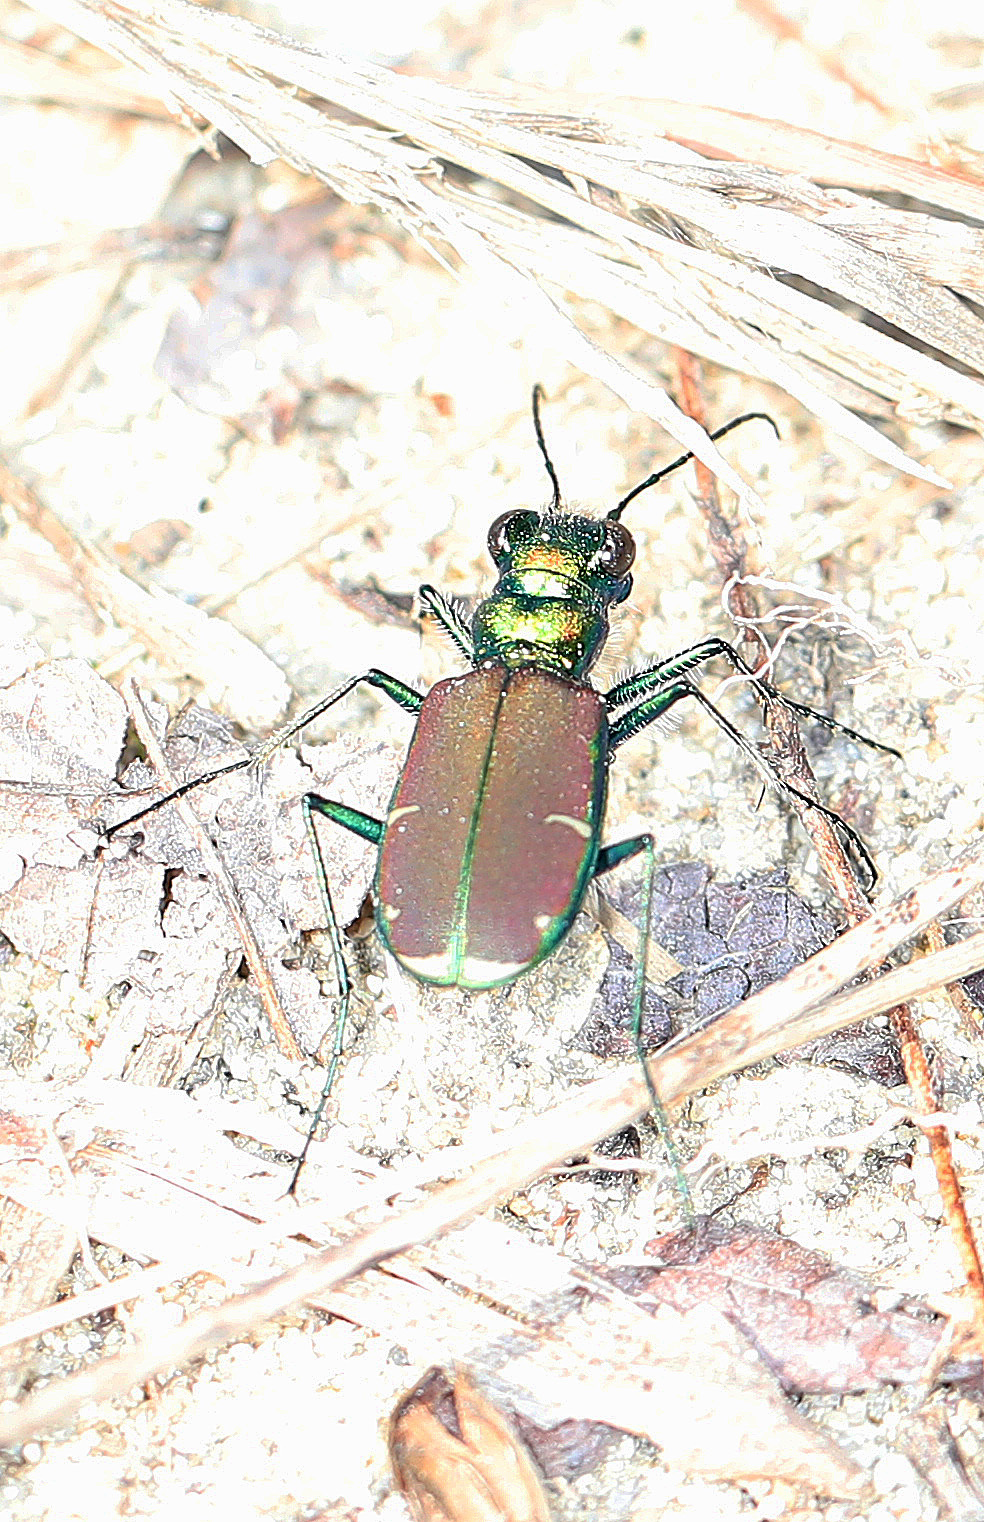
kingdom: Animalia
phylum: Arthropoda
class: Insecta
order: Coleoptera
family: Carabidae
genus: Cicindela
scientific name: Cicindela splendida
